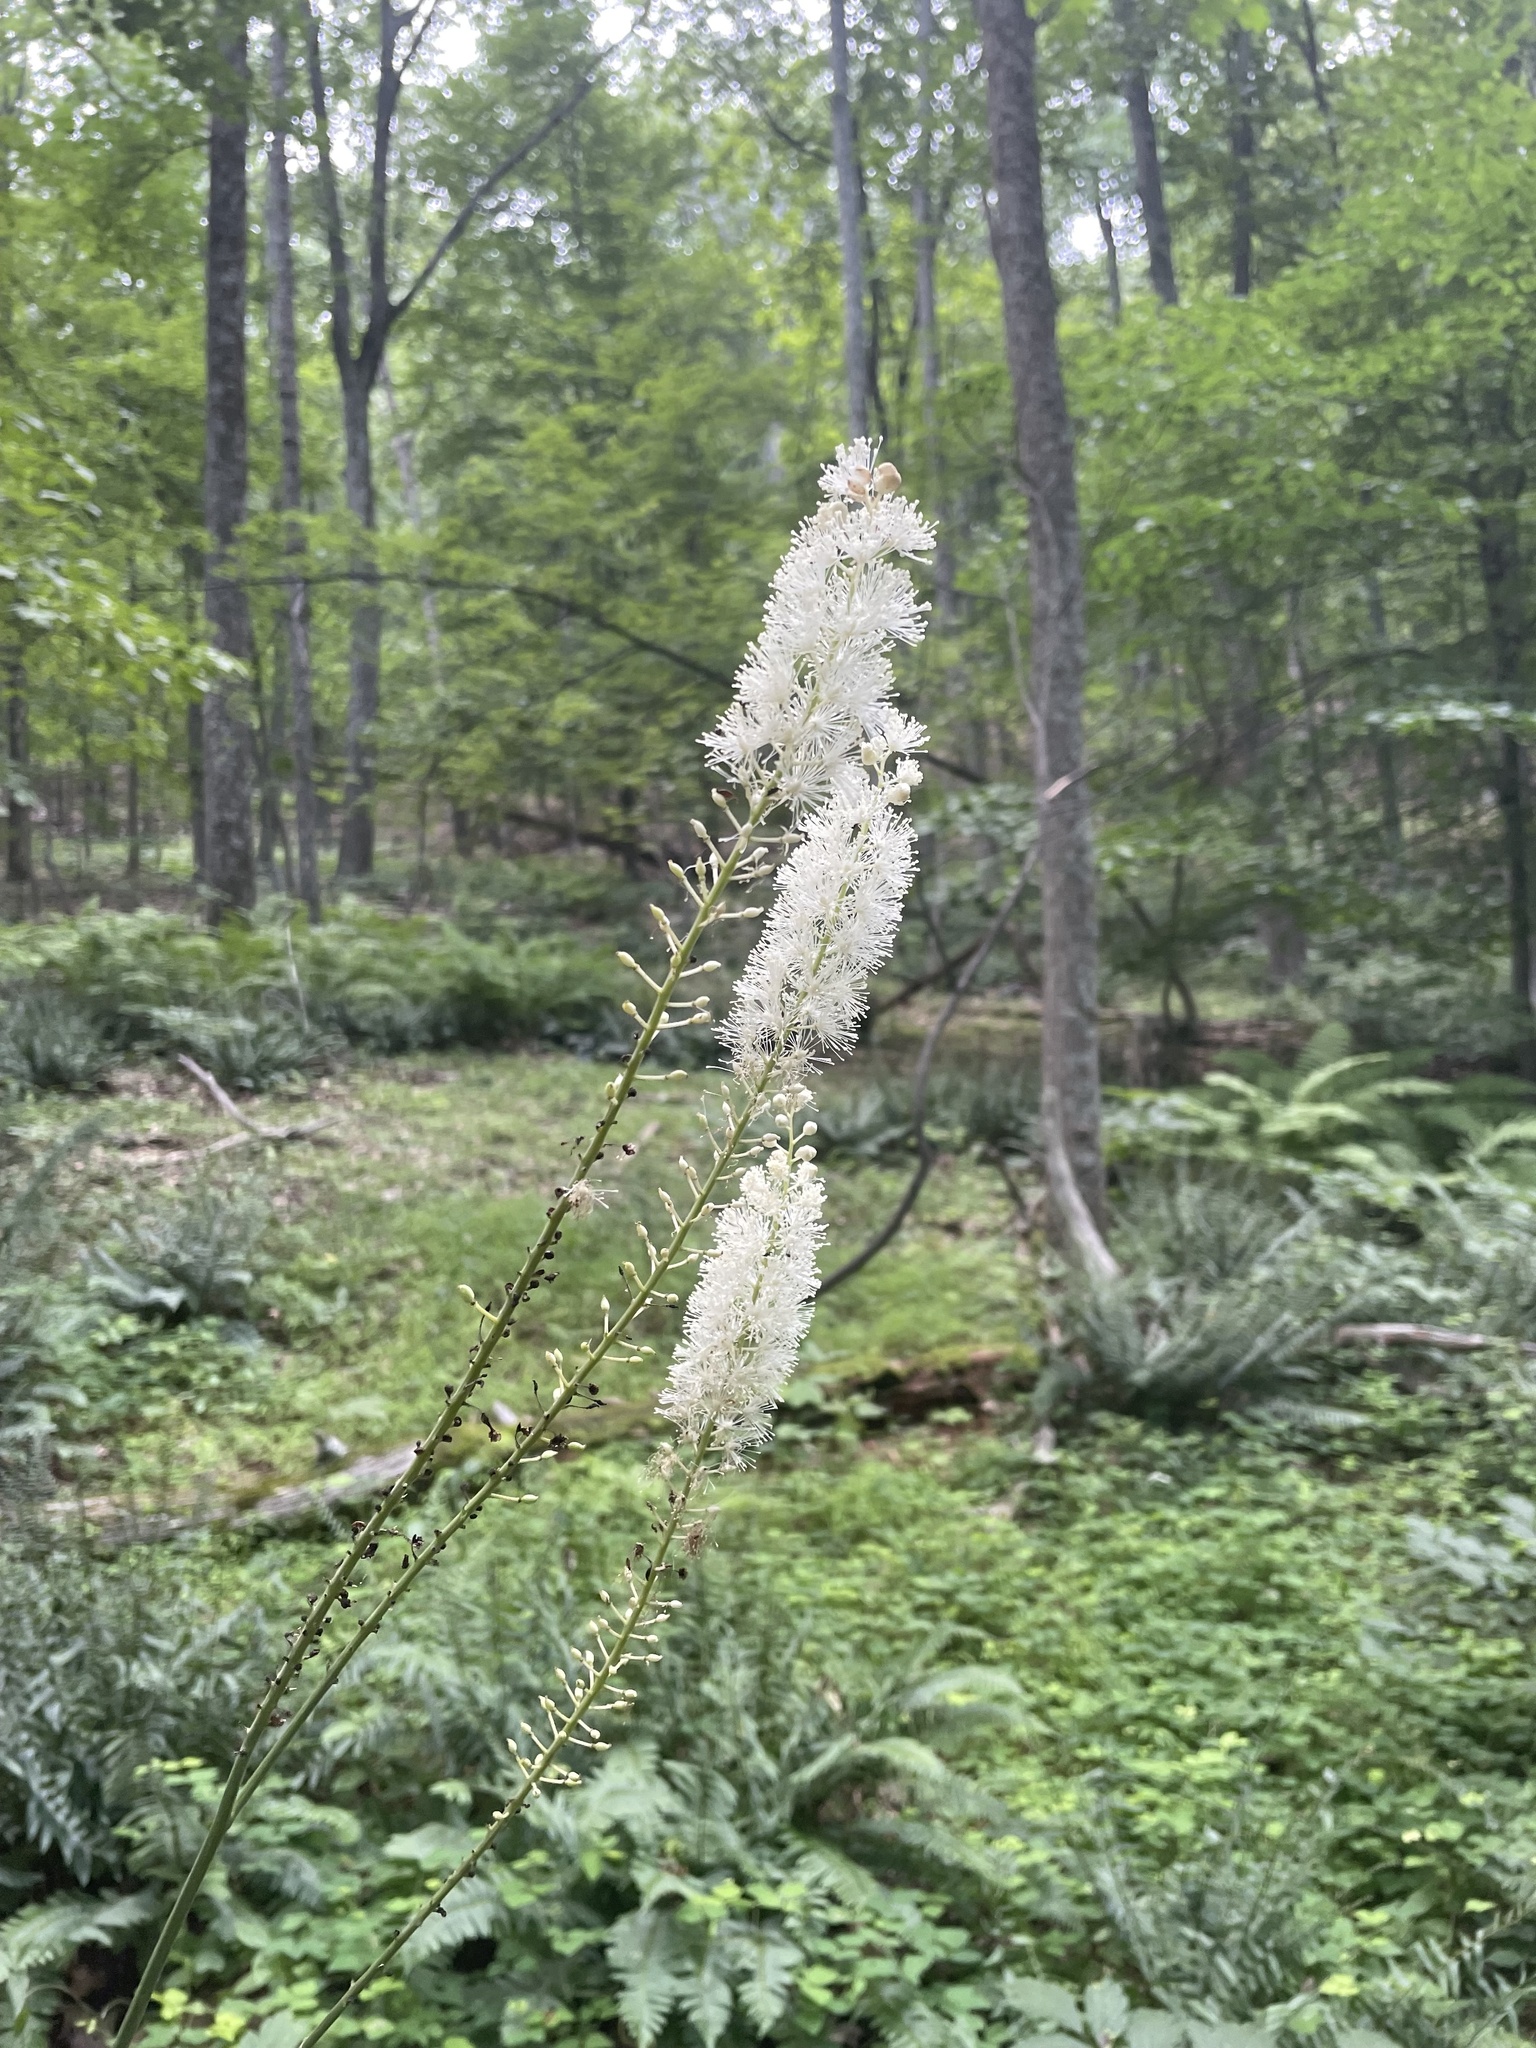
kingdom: Plantae
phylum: Tracheophyta
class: Magnoliopsida
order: Ranunculales
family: Ranunculaceae
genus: Actaea
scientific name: Actaea racemosa
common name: Black cohosh
